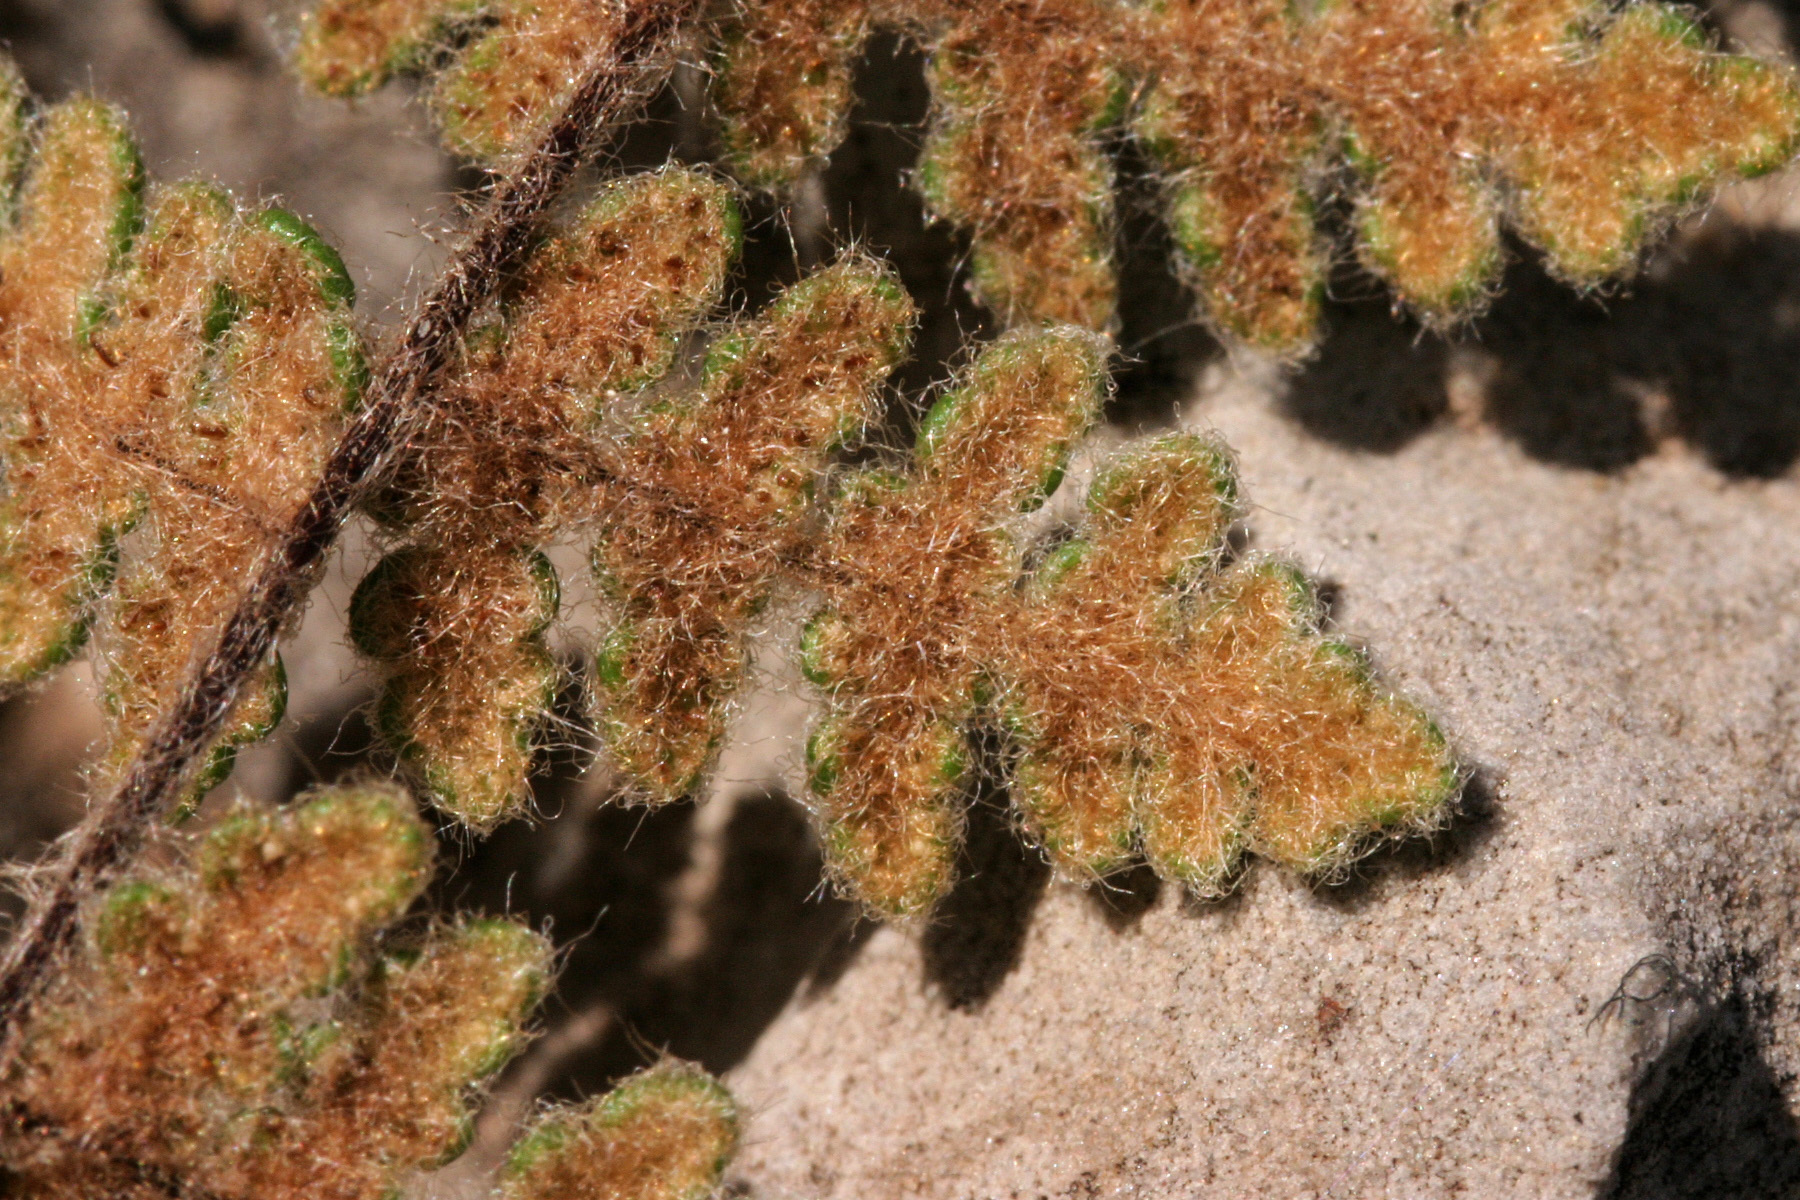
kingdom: Plantae
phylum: Tracheophyta
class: Polypodiopsida
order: Polypodiales
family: Pteridaceae
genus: Myriopteris
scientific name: Myriopteris gracilis
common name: Fee's lip fern
